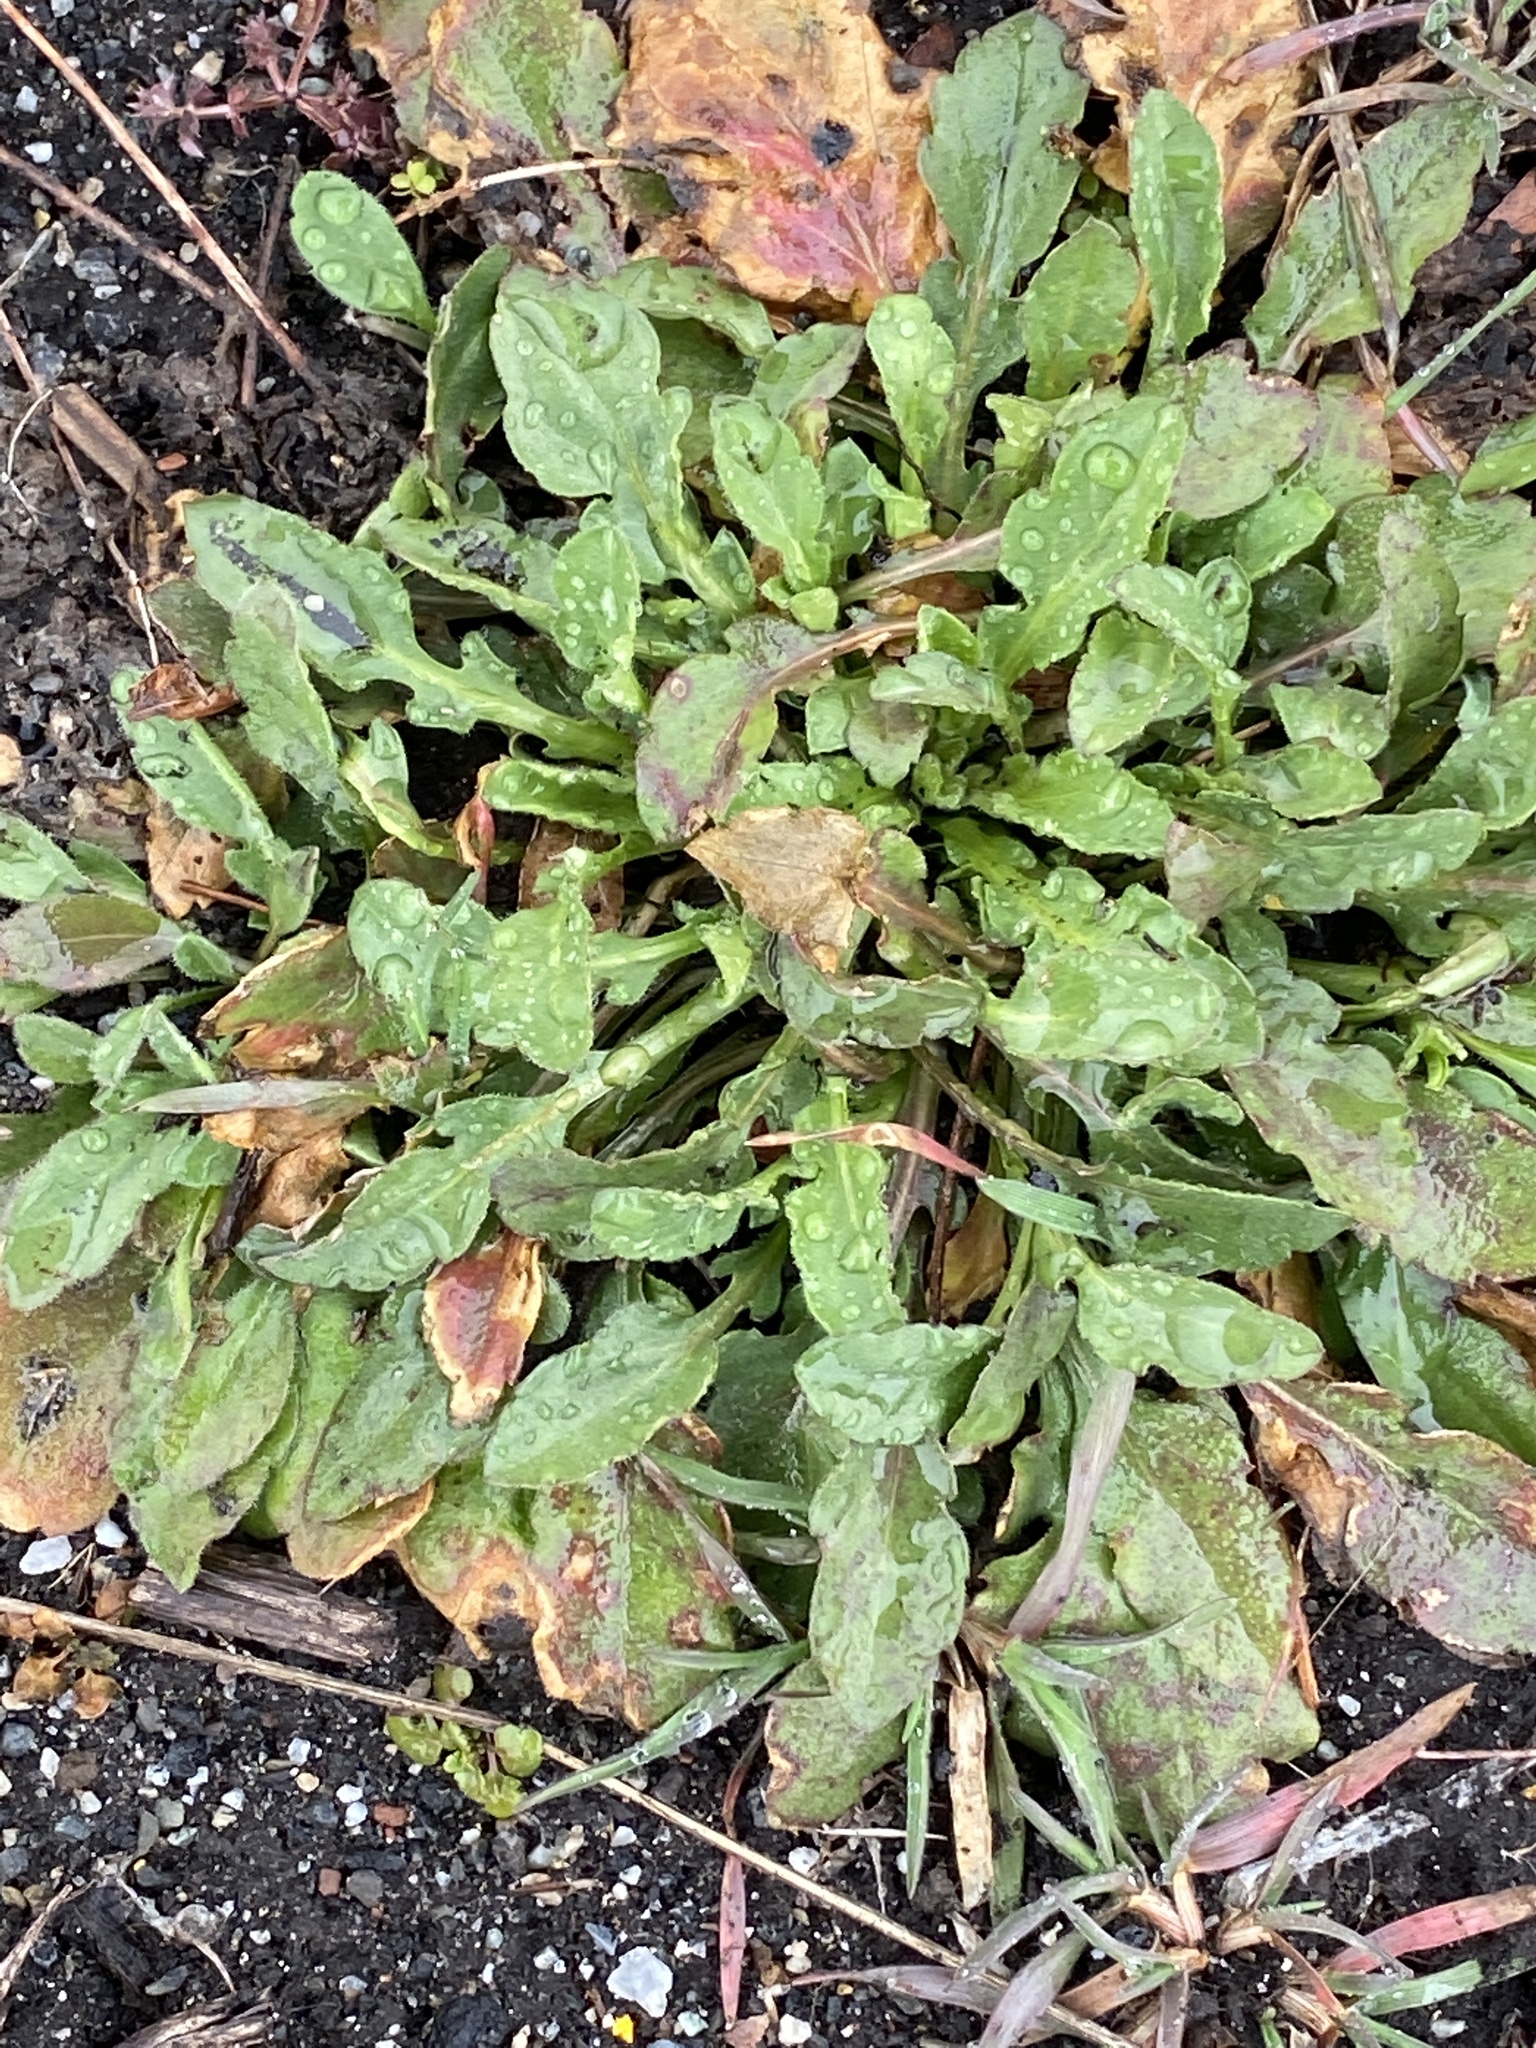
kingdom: Plantae
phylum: Tracheophyta
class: Magnoliopsida
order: Asterales
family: Asteraceae
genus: Erigeron
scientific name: Erigeron canadensis
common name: Canadian fleabane
